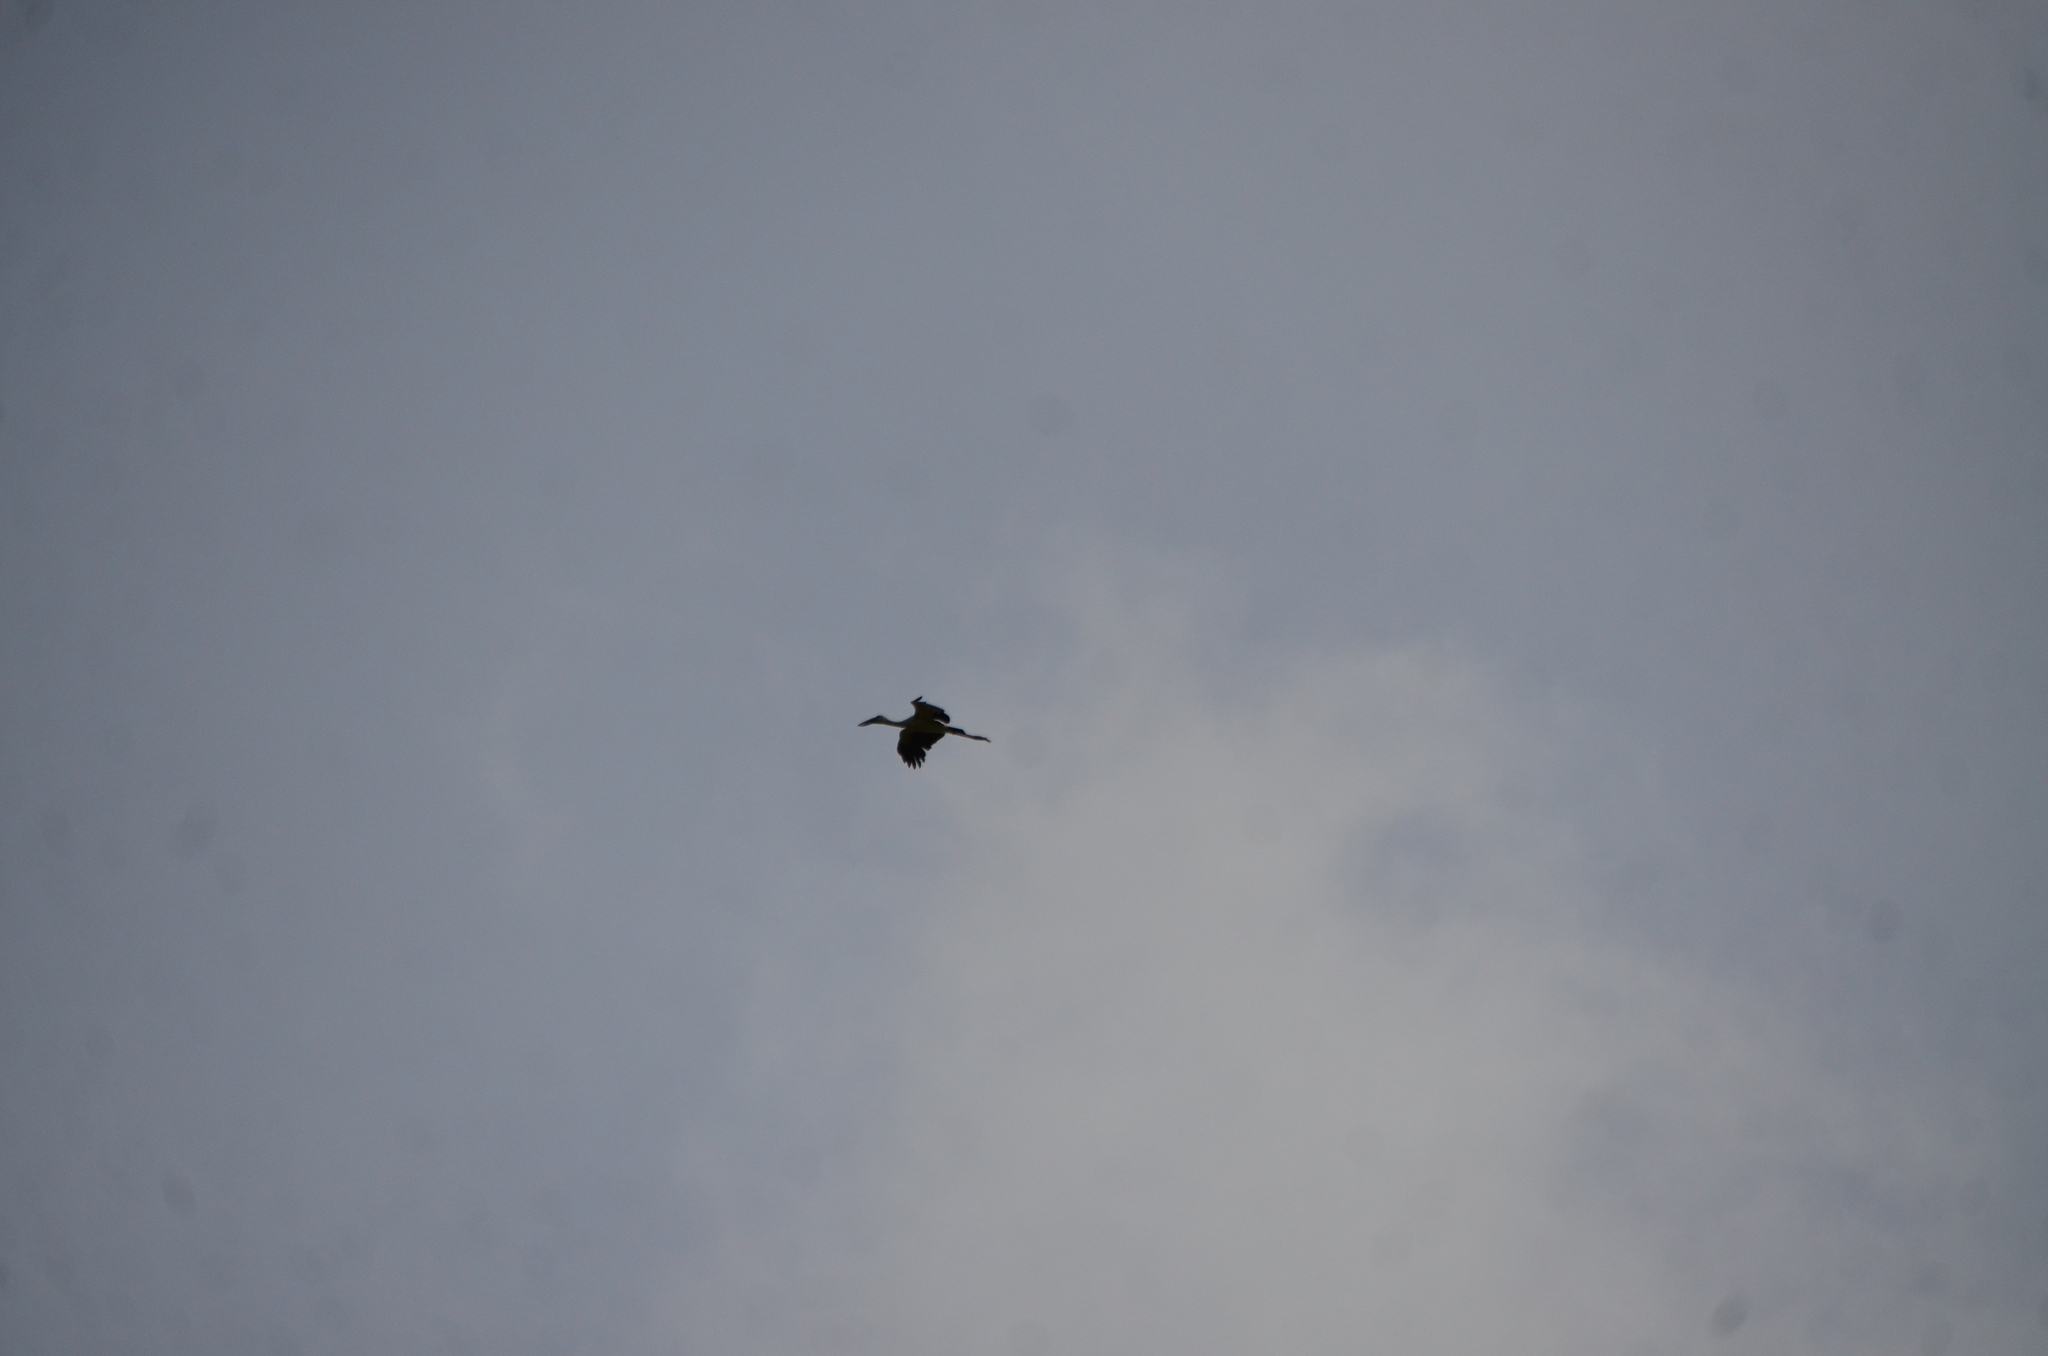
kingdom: Animalia
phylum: Chordata
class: Aves
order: Ciconiiformes
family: Ciconiidae
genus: Anastomus
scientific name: Anastomus oscitans
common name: Asian openbill
